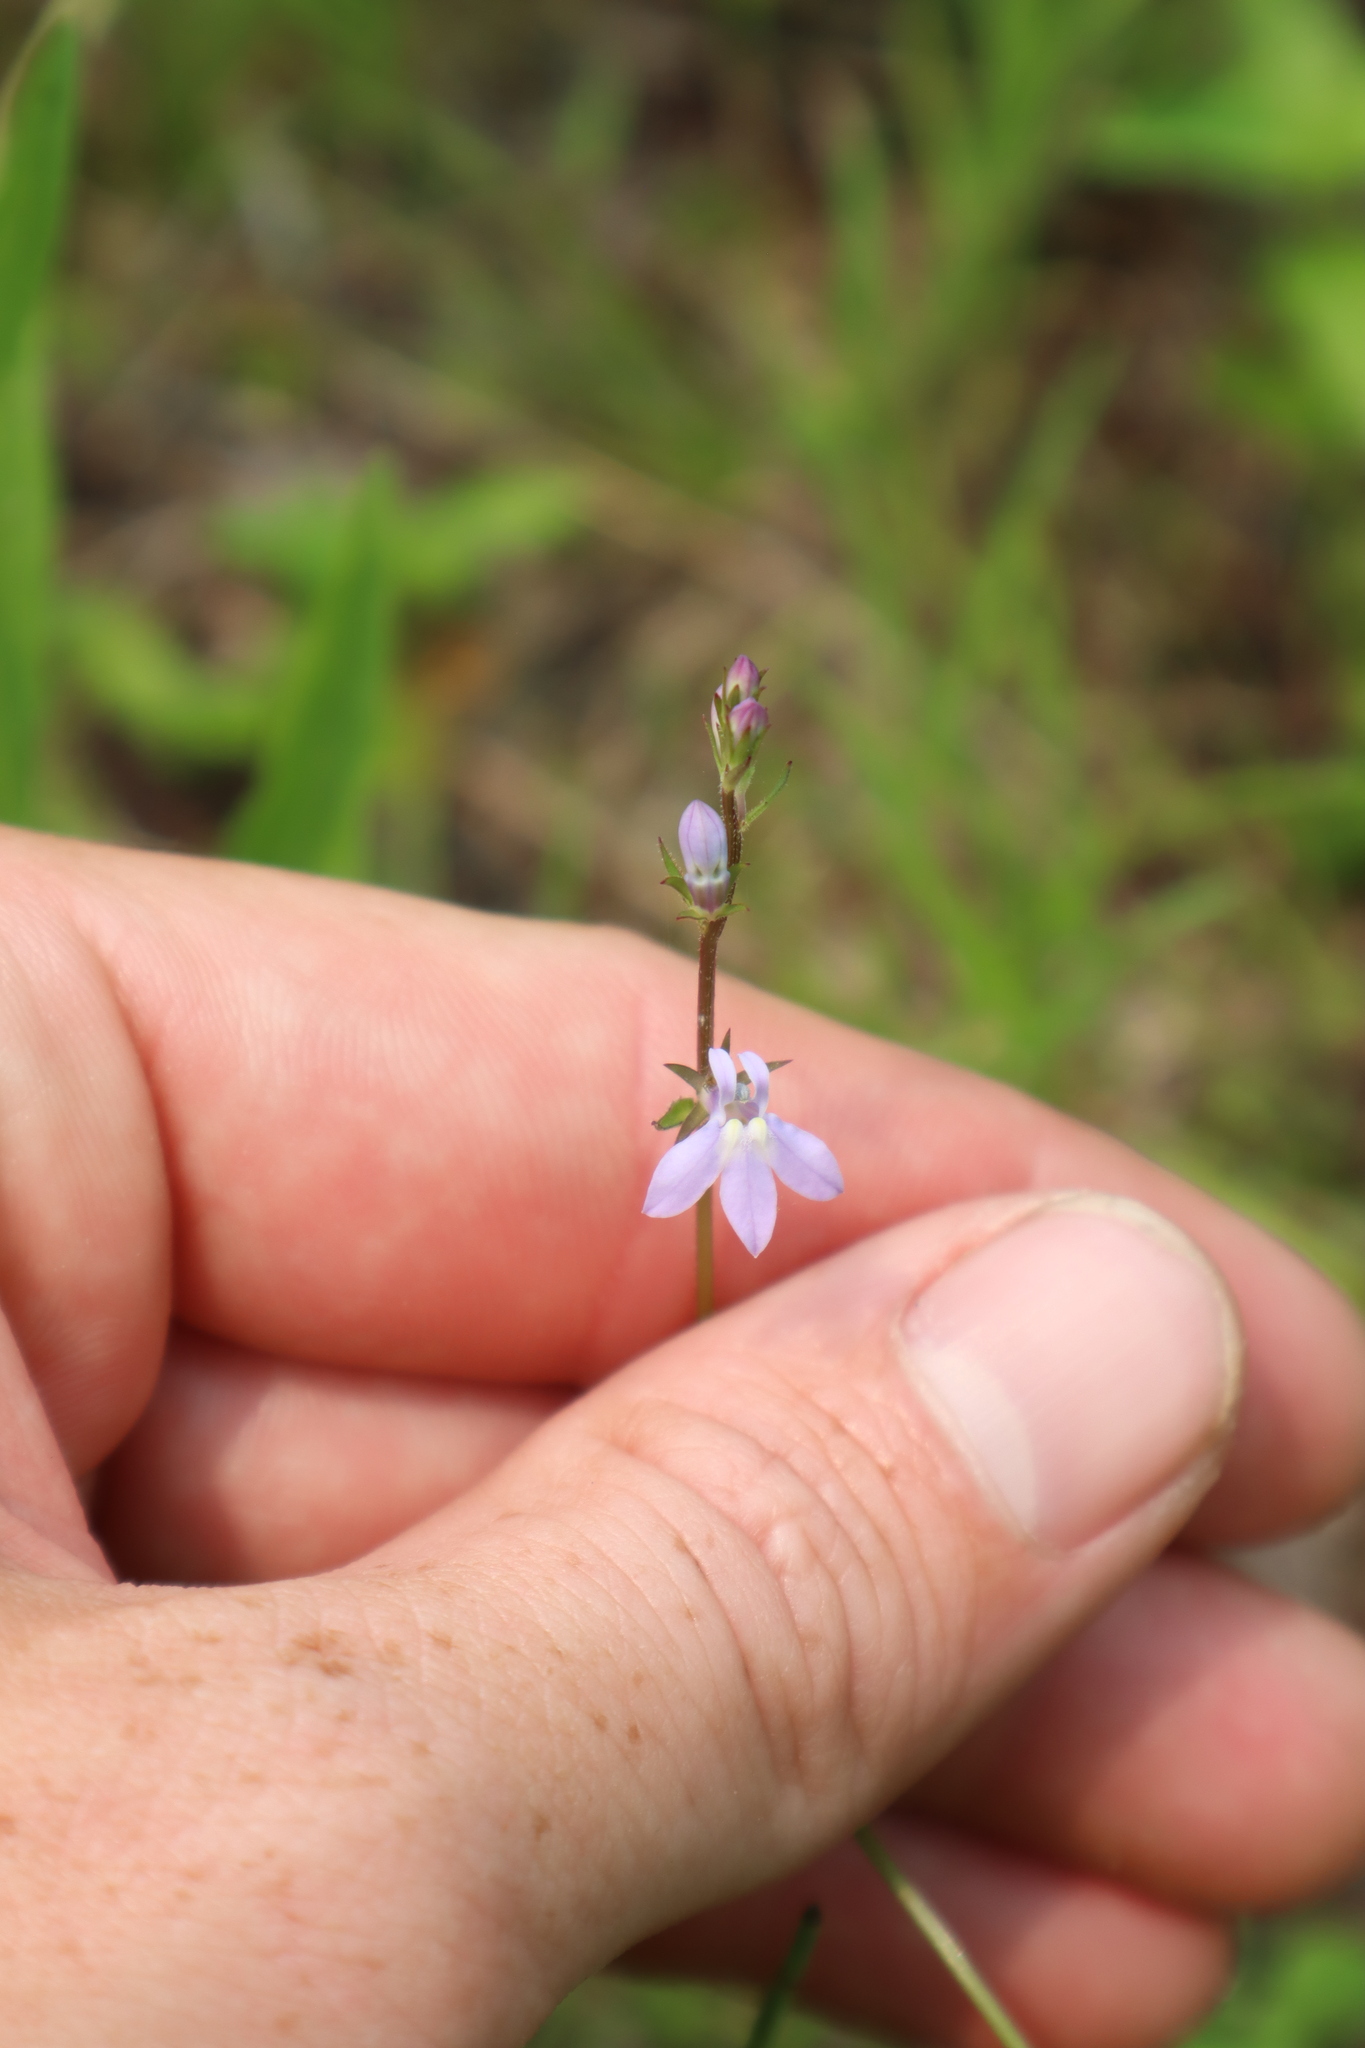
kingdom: Plantae
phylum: Tracheophyta
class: Magnoliopsida
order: Asterales
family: Campanulaceae
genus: Lobelia
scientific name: Lobelia spicata
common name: Pale-spike lobelia
